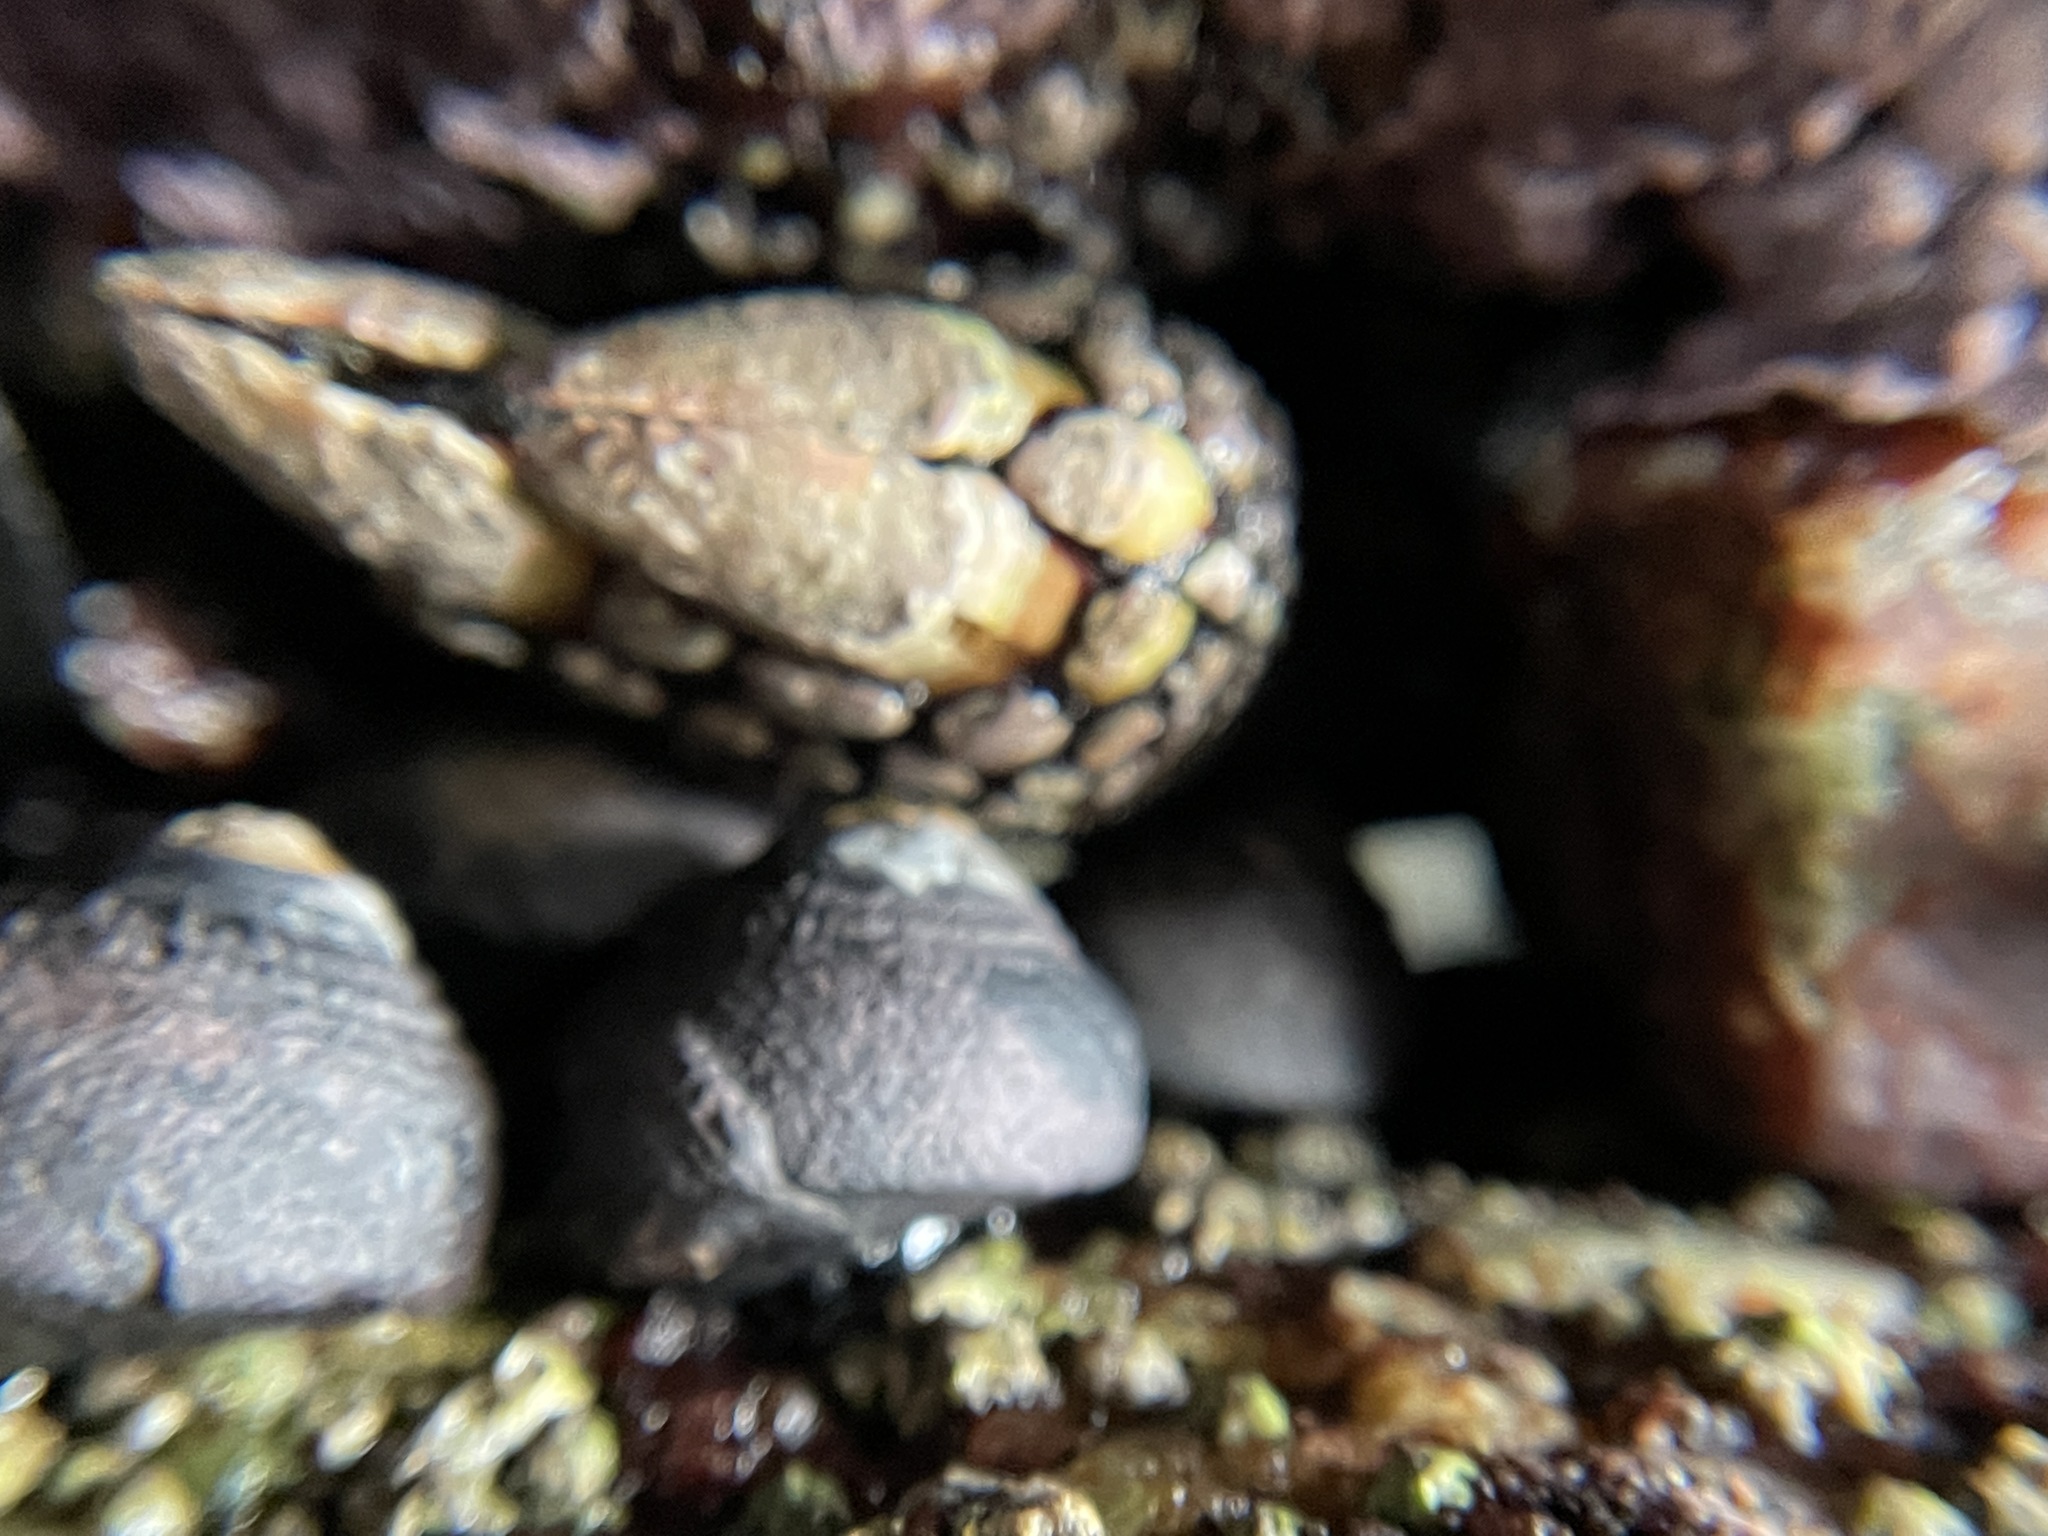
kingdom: Animalia
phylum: Arthropoda
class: Maxillopoda
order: Pedunculata
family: Pollicipedidae
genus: Pollicipes
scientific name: Pollicipes polymerus
